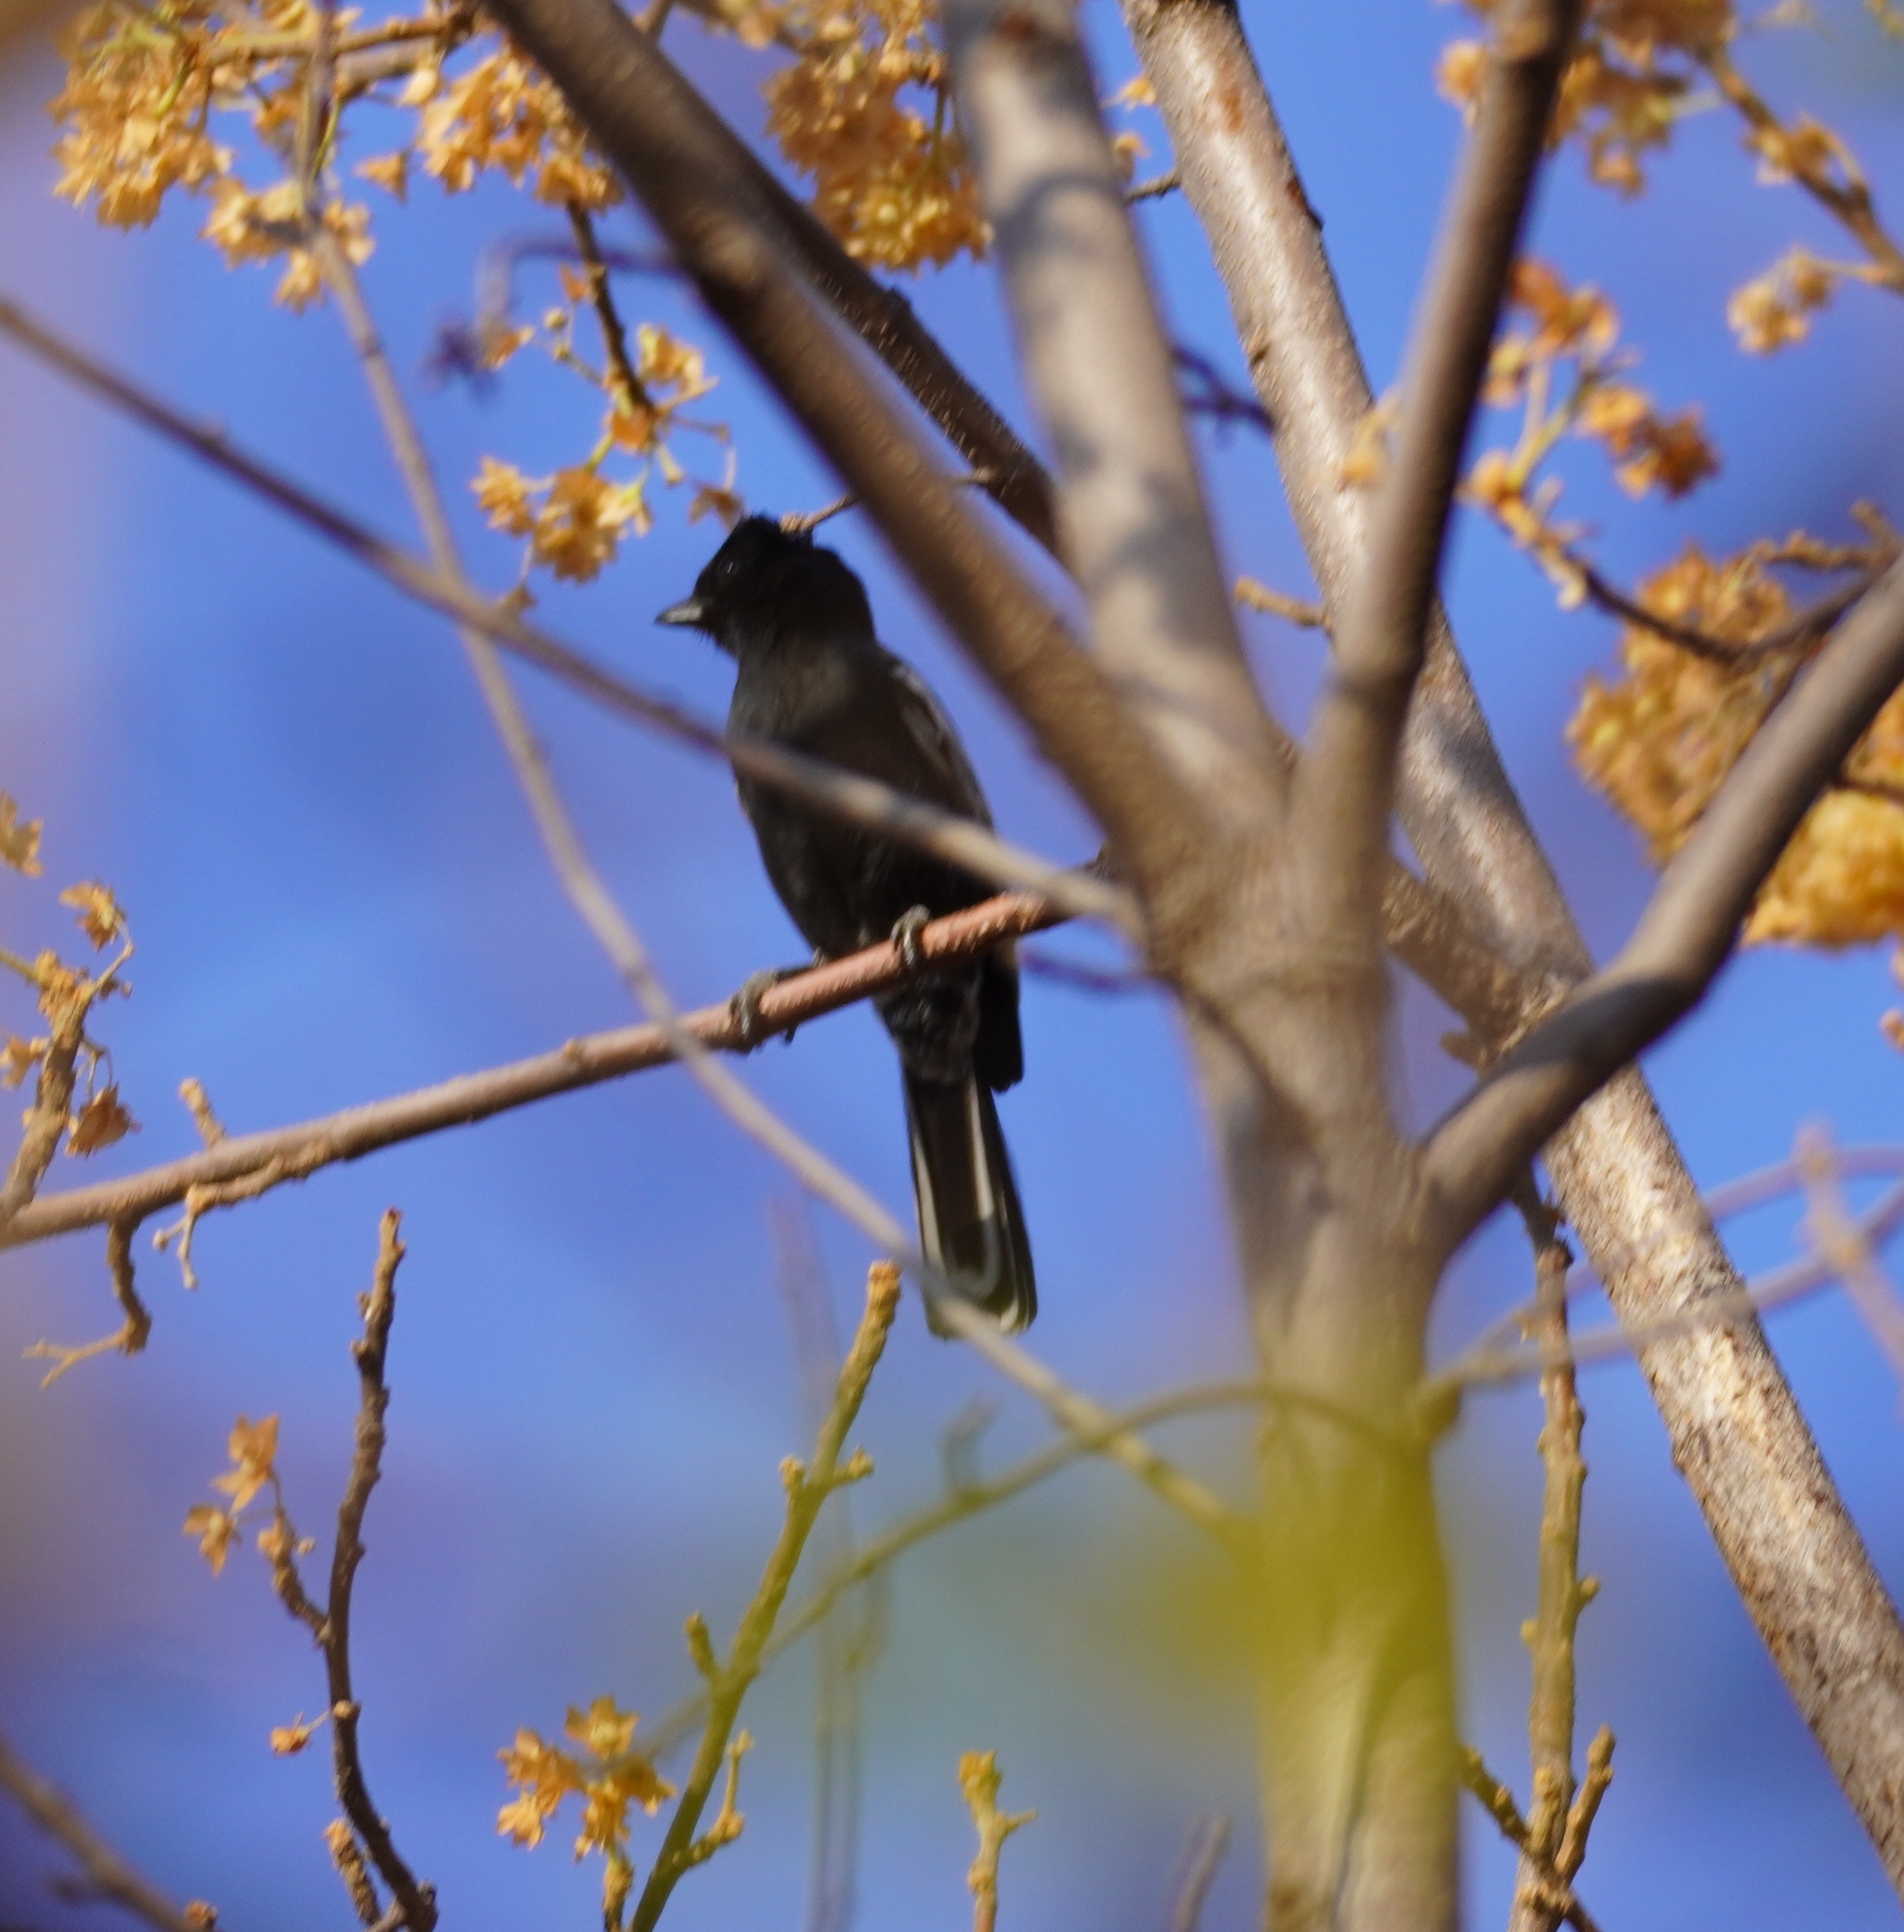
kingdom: Animalia
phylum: Chordata
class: Aves
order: Passeriformes
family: Paridae
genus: Parus
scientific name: Parus niger
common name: Southern black tit
